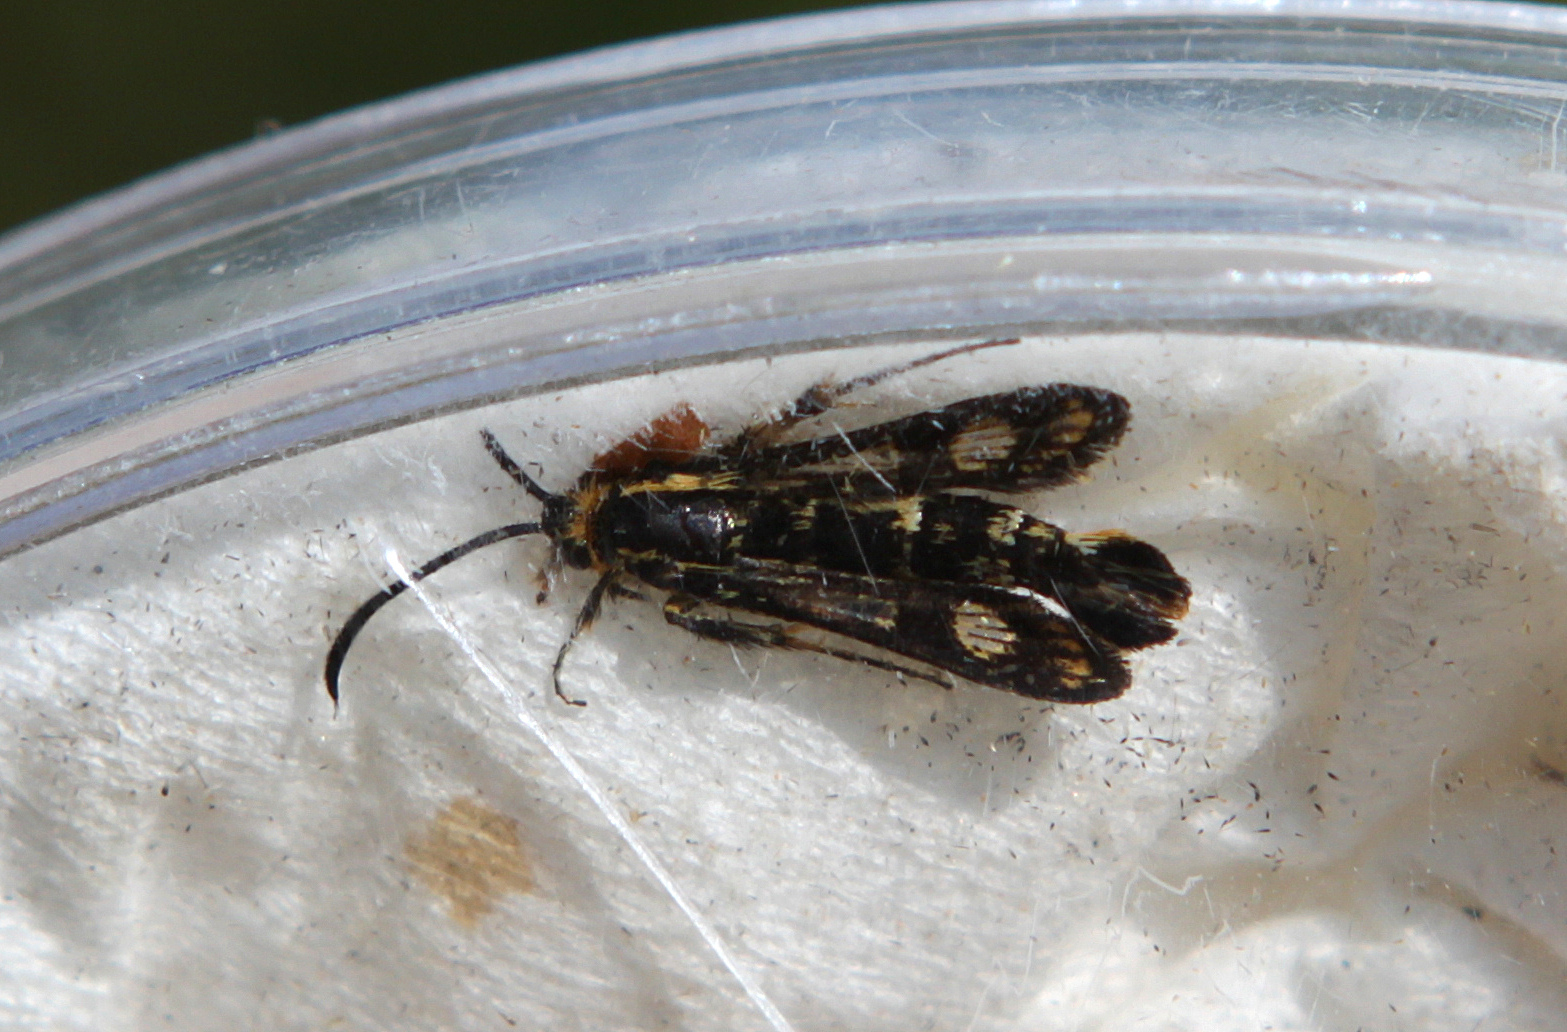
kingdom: Animalia
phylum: Arthropoda
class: Insecta
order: Lepidoptera
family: Sesiidae
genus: Chamaesphecia
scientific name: Chamaesphecia empiformis
